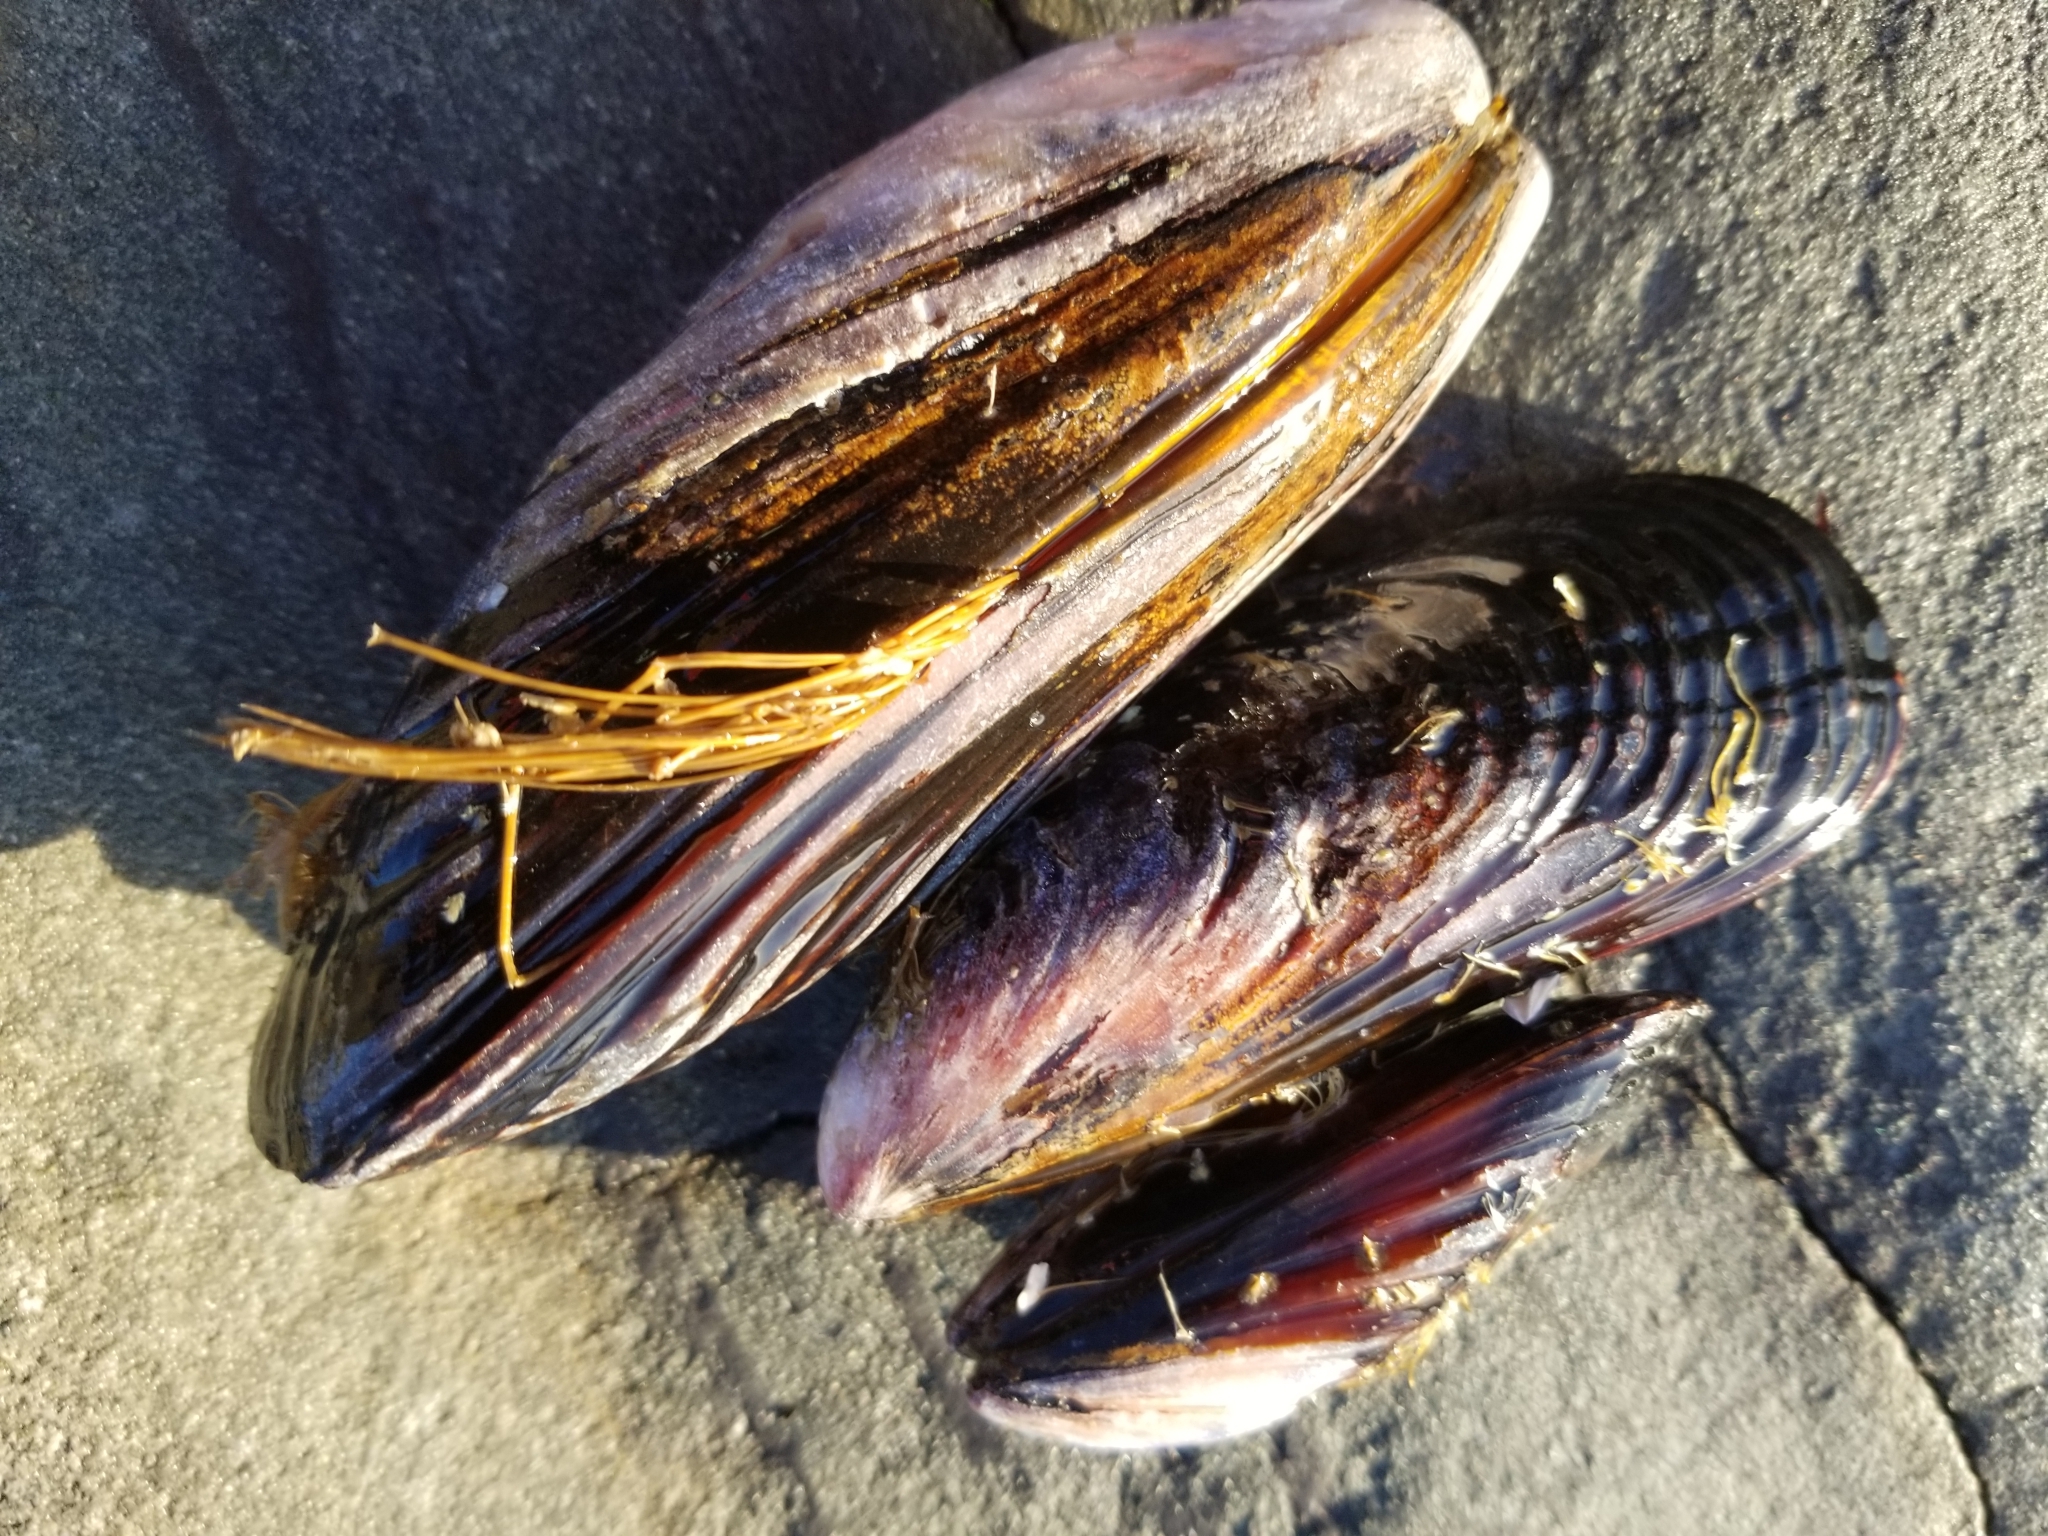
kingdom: Animalia
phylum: Mollusca
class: Bivalvia
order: Mytilida
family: Mytilidae
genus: Mytilus
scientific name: Mytilus californianus
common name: California mussel
